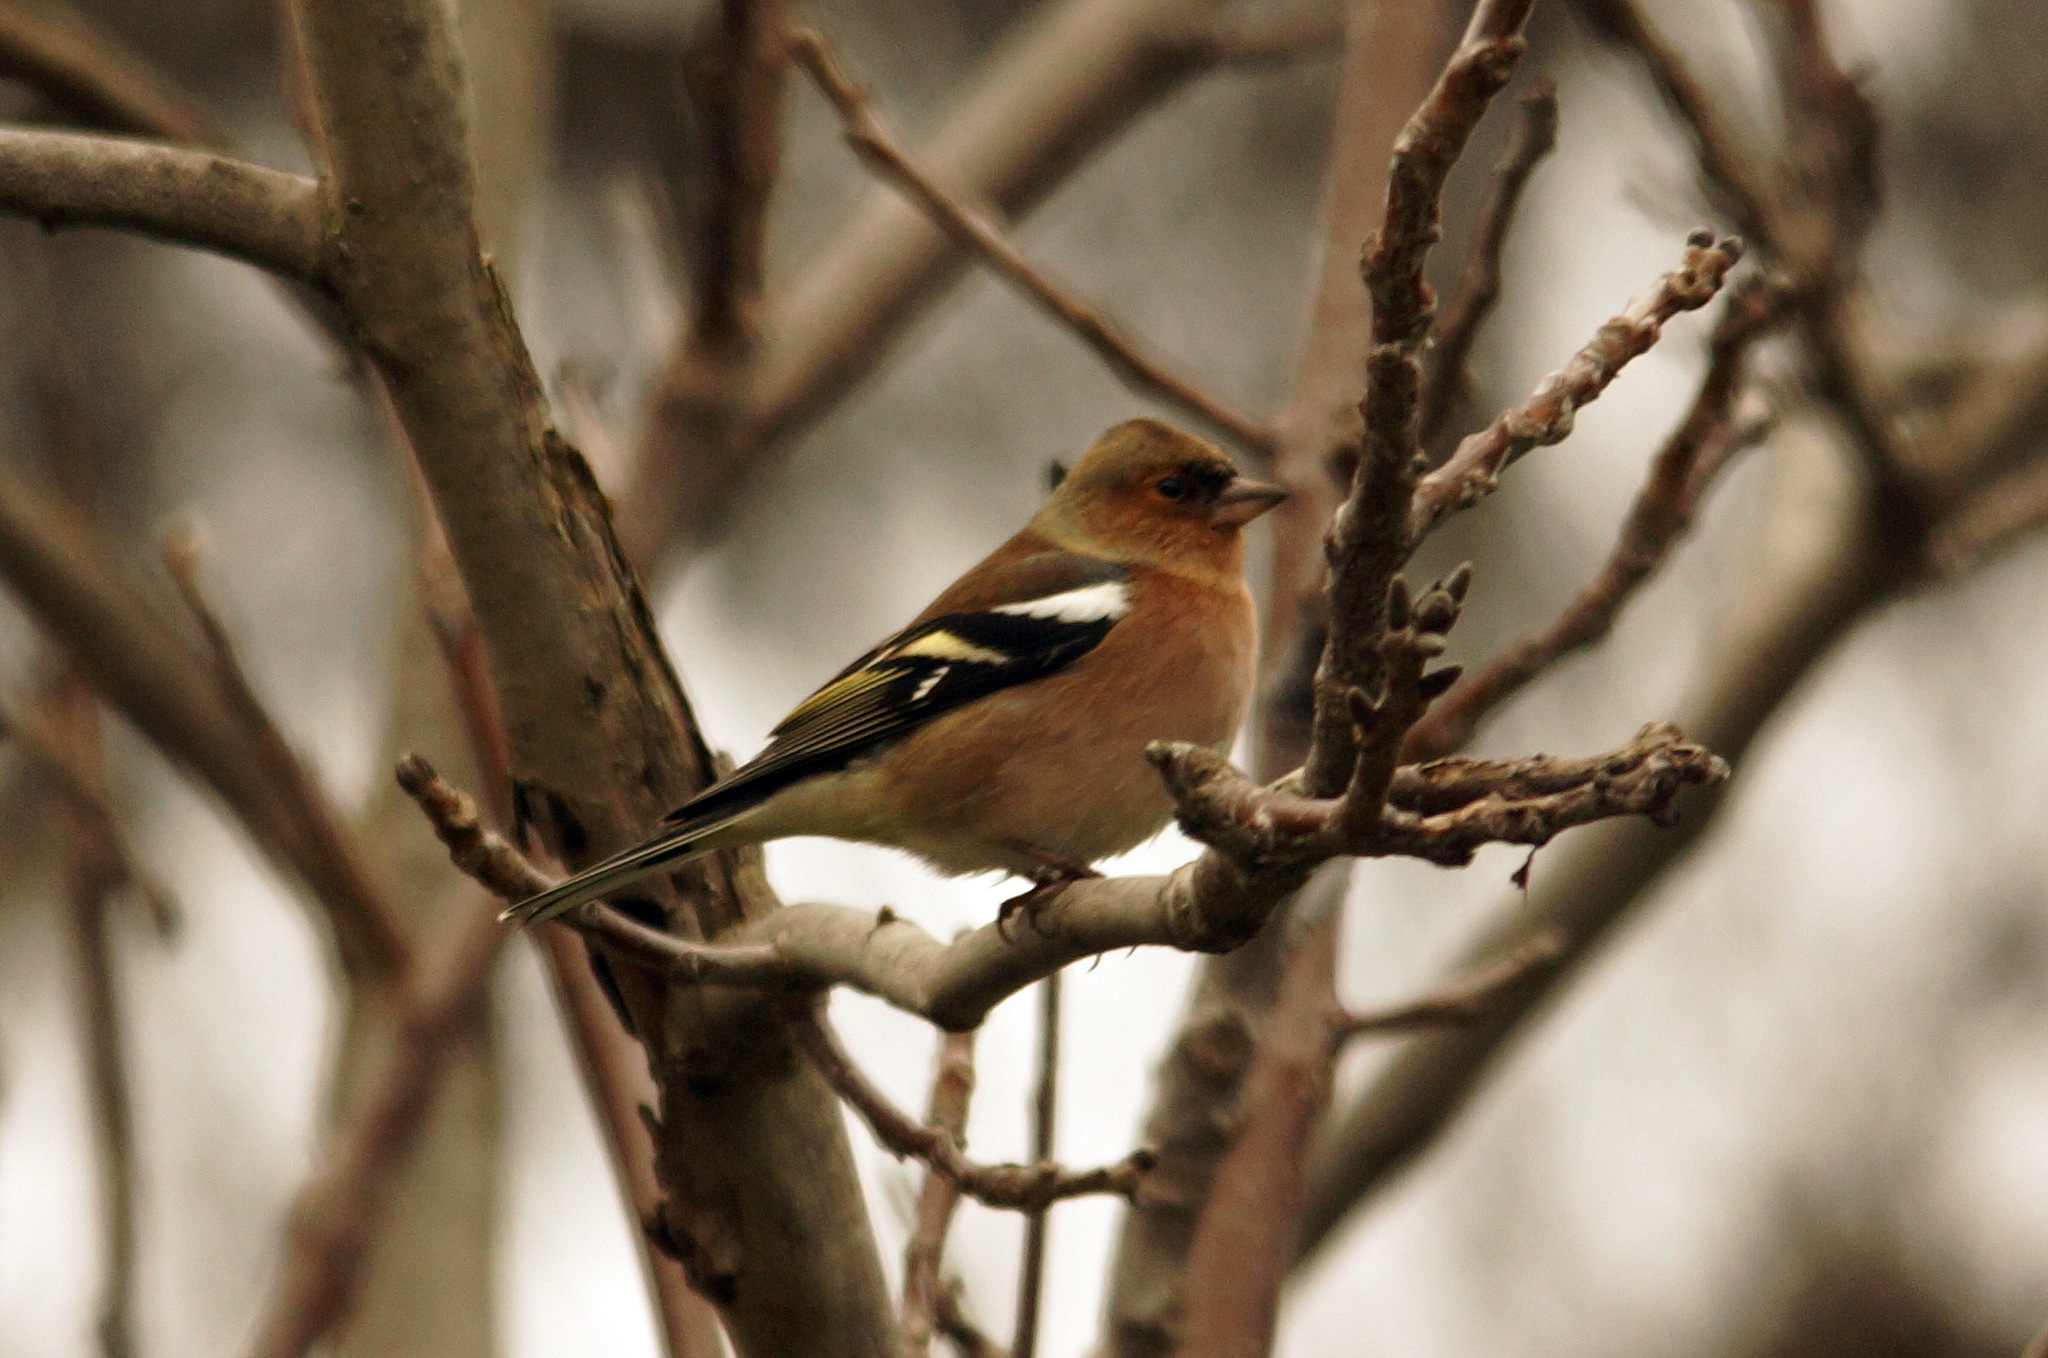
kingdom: Animalia
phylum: Chordata
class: Aves
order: Passeriformes
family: Fringillidae
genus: Fringilla
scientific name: Fringilla coelebs
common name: Common chaffinch
